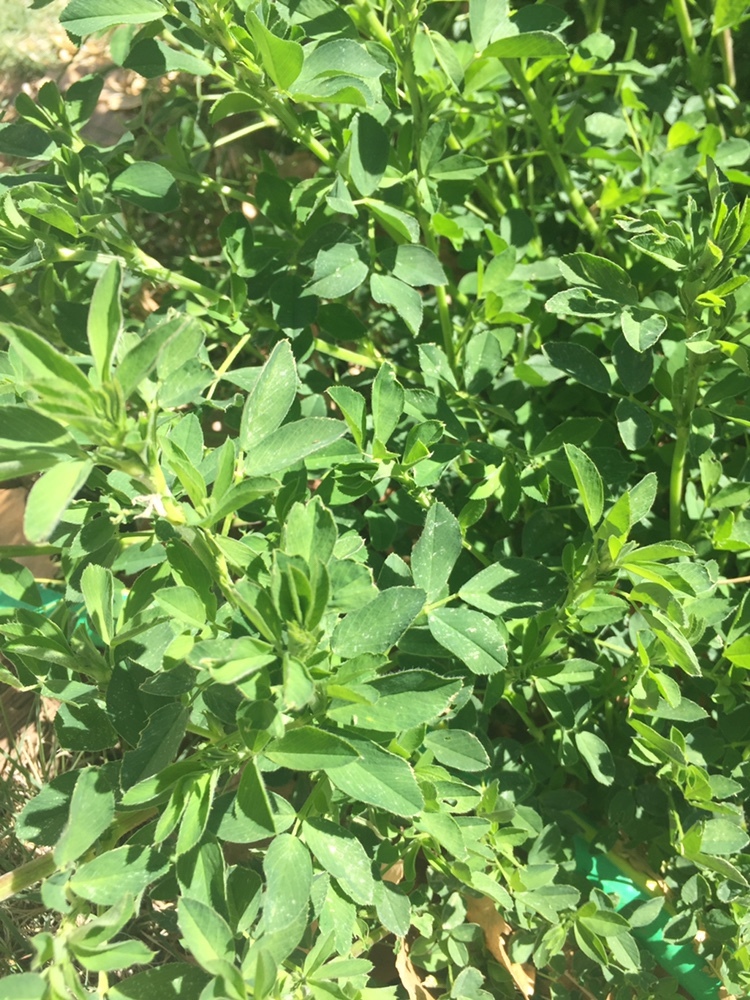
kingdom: Plantae
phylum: Tracheophyta
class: Magnoliopsida
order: Fabales
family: Fabaceae
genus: Medicago
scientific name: Medicago sativa
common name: Alfalfa
